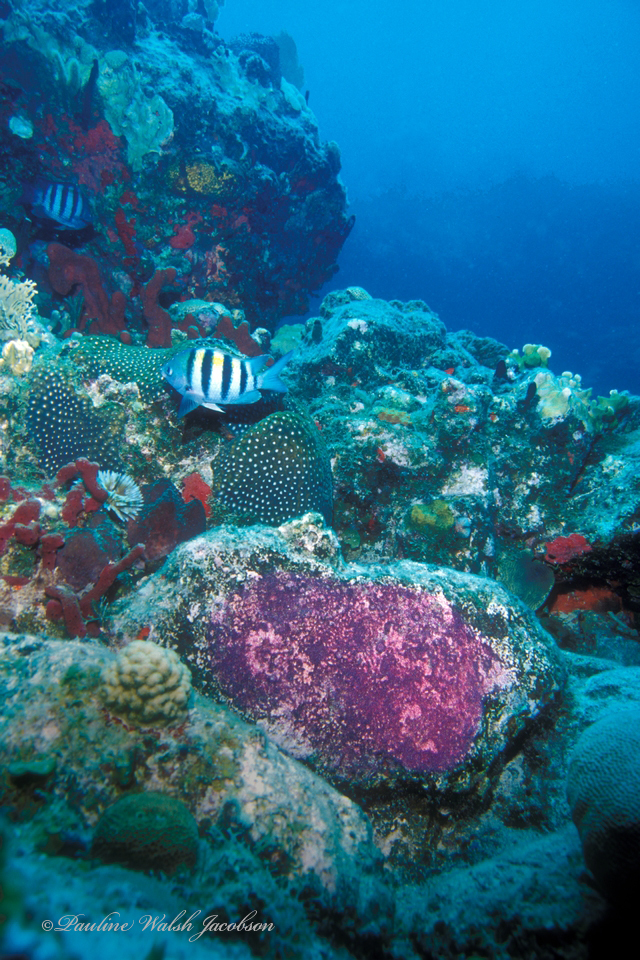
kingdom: Animalia
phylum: Chordata
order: Perciformes
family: Pomacentridae
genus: Abudefduf
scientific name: Abudefduf saxatilis
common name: Sergeant major
